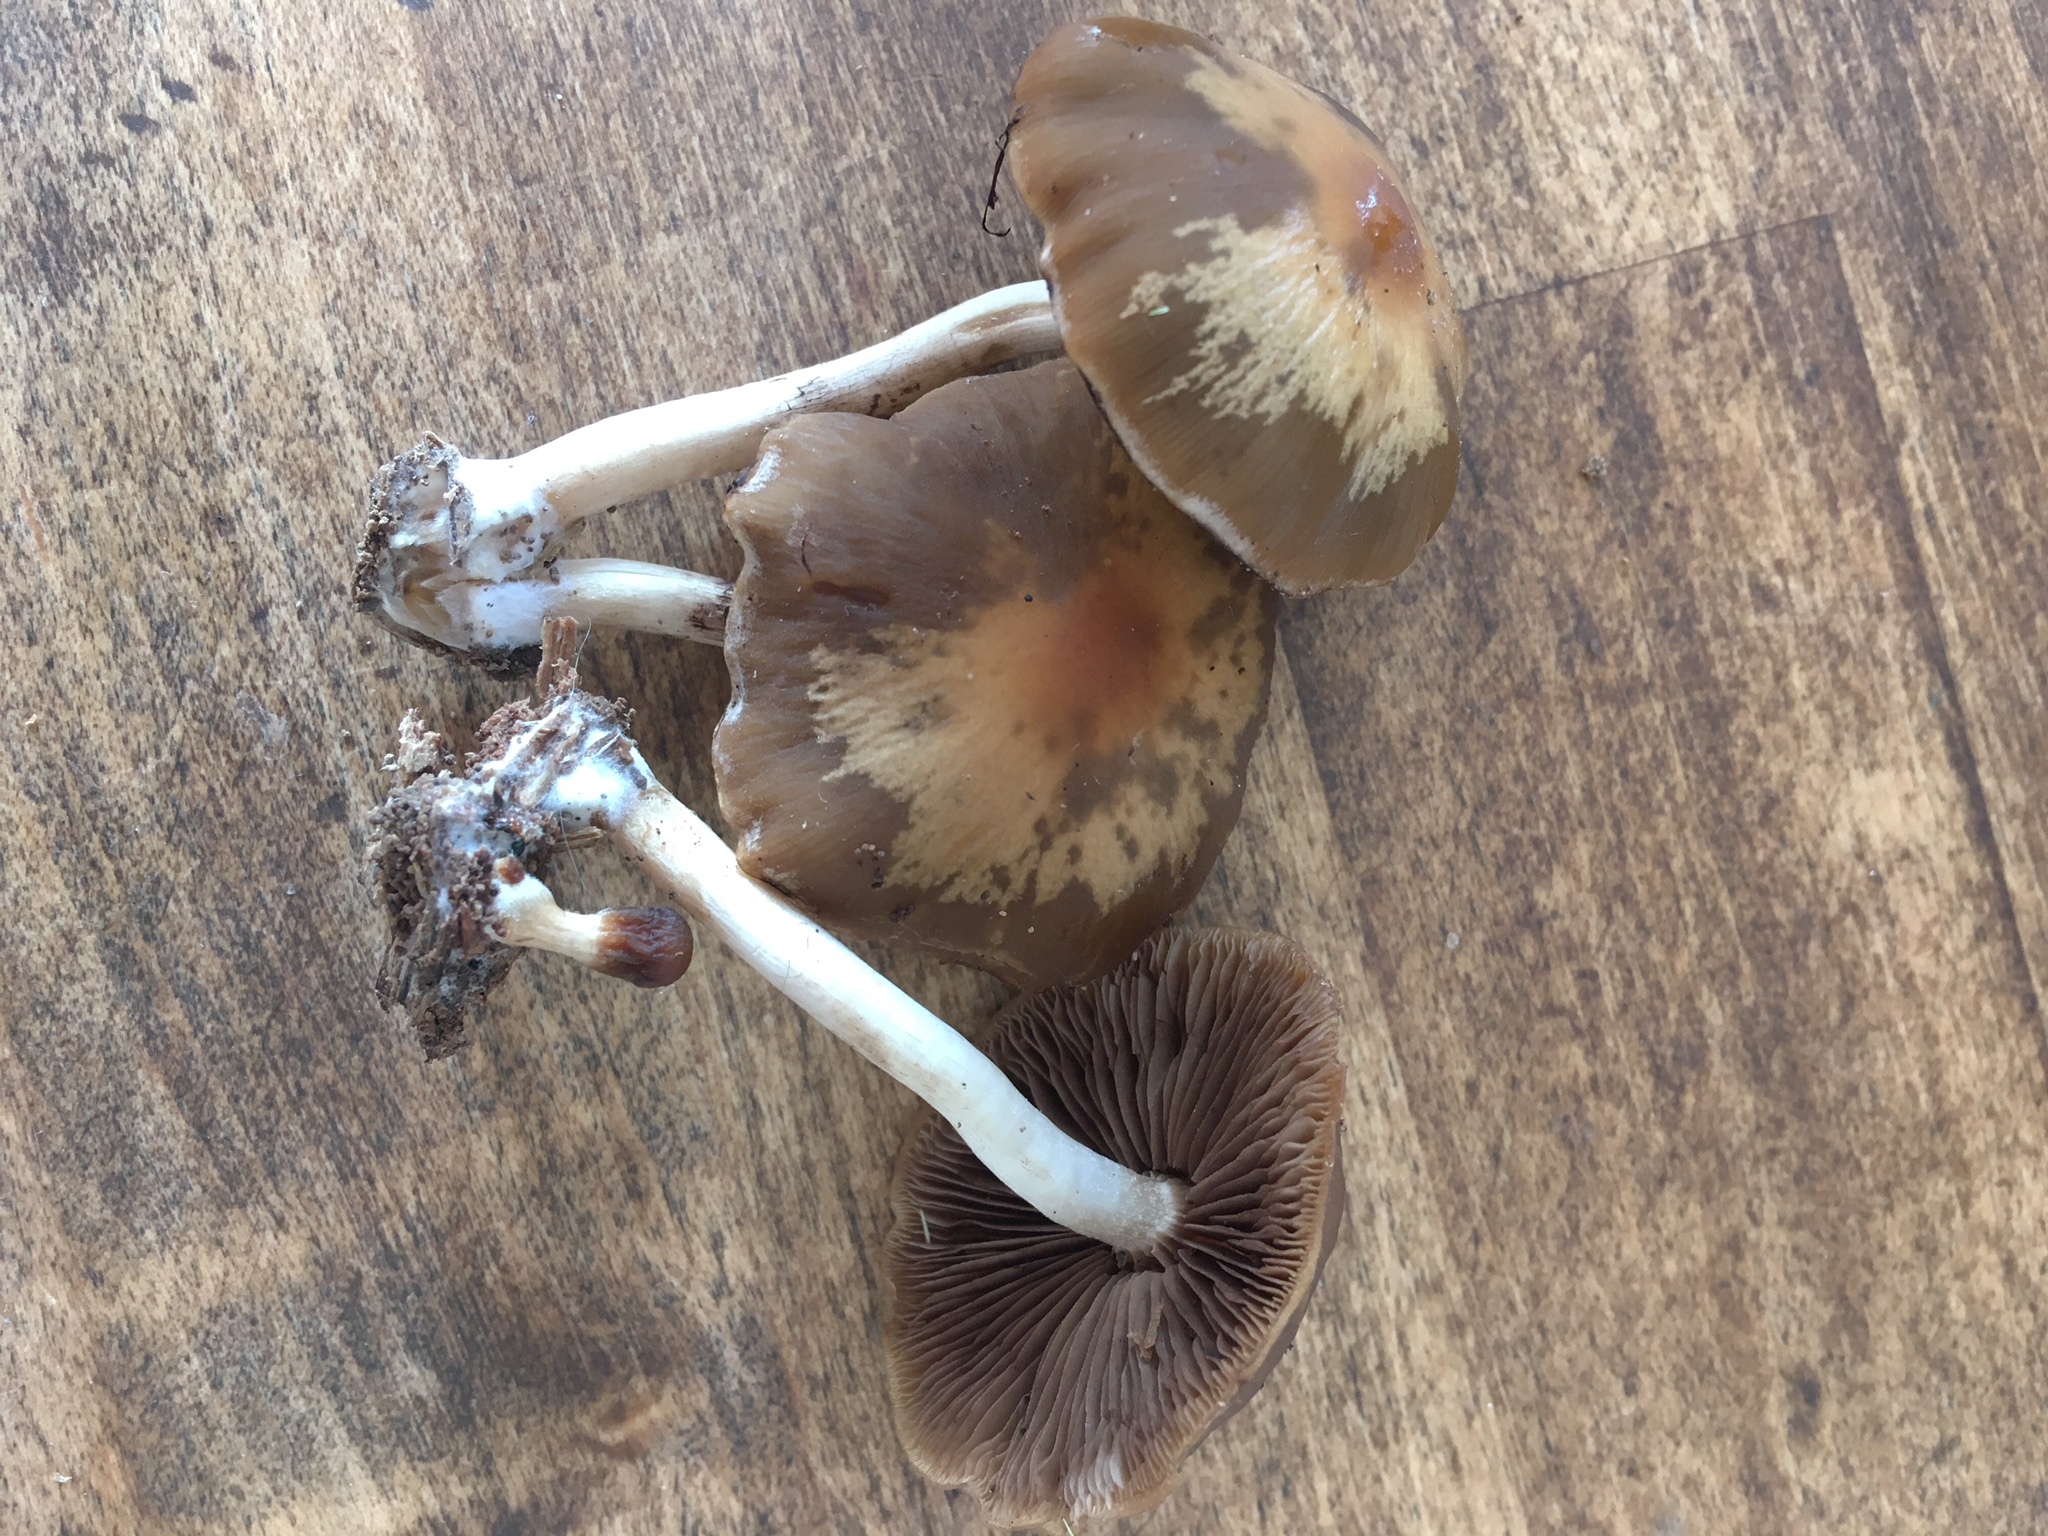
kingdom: Fungi
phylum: Basidiomycota
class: Agaricomycetes
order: Agaricales
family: Psathyrellaceae
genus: Psathyrella
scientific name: Psathyrella conissans
